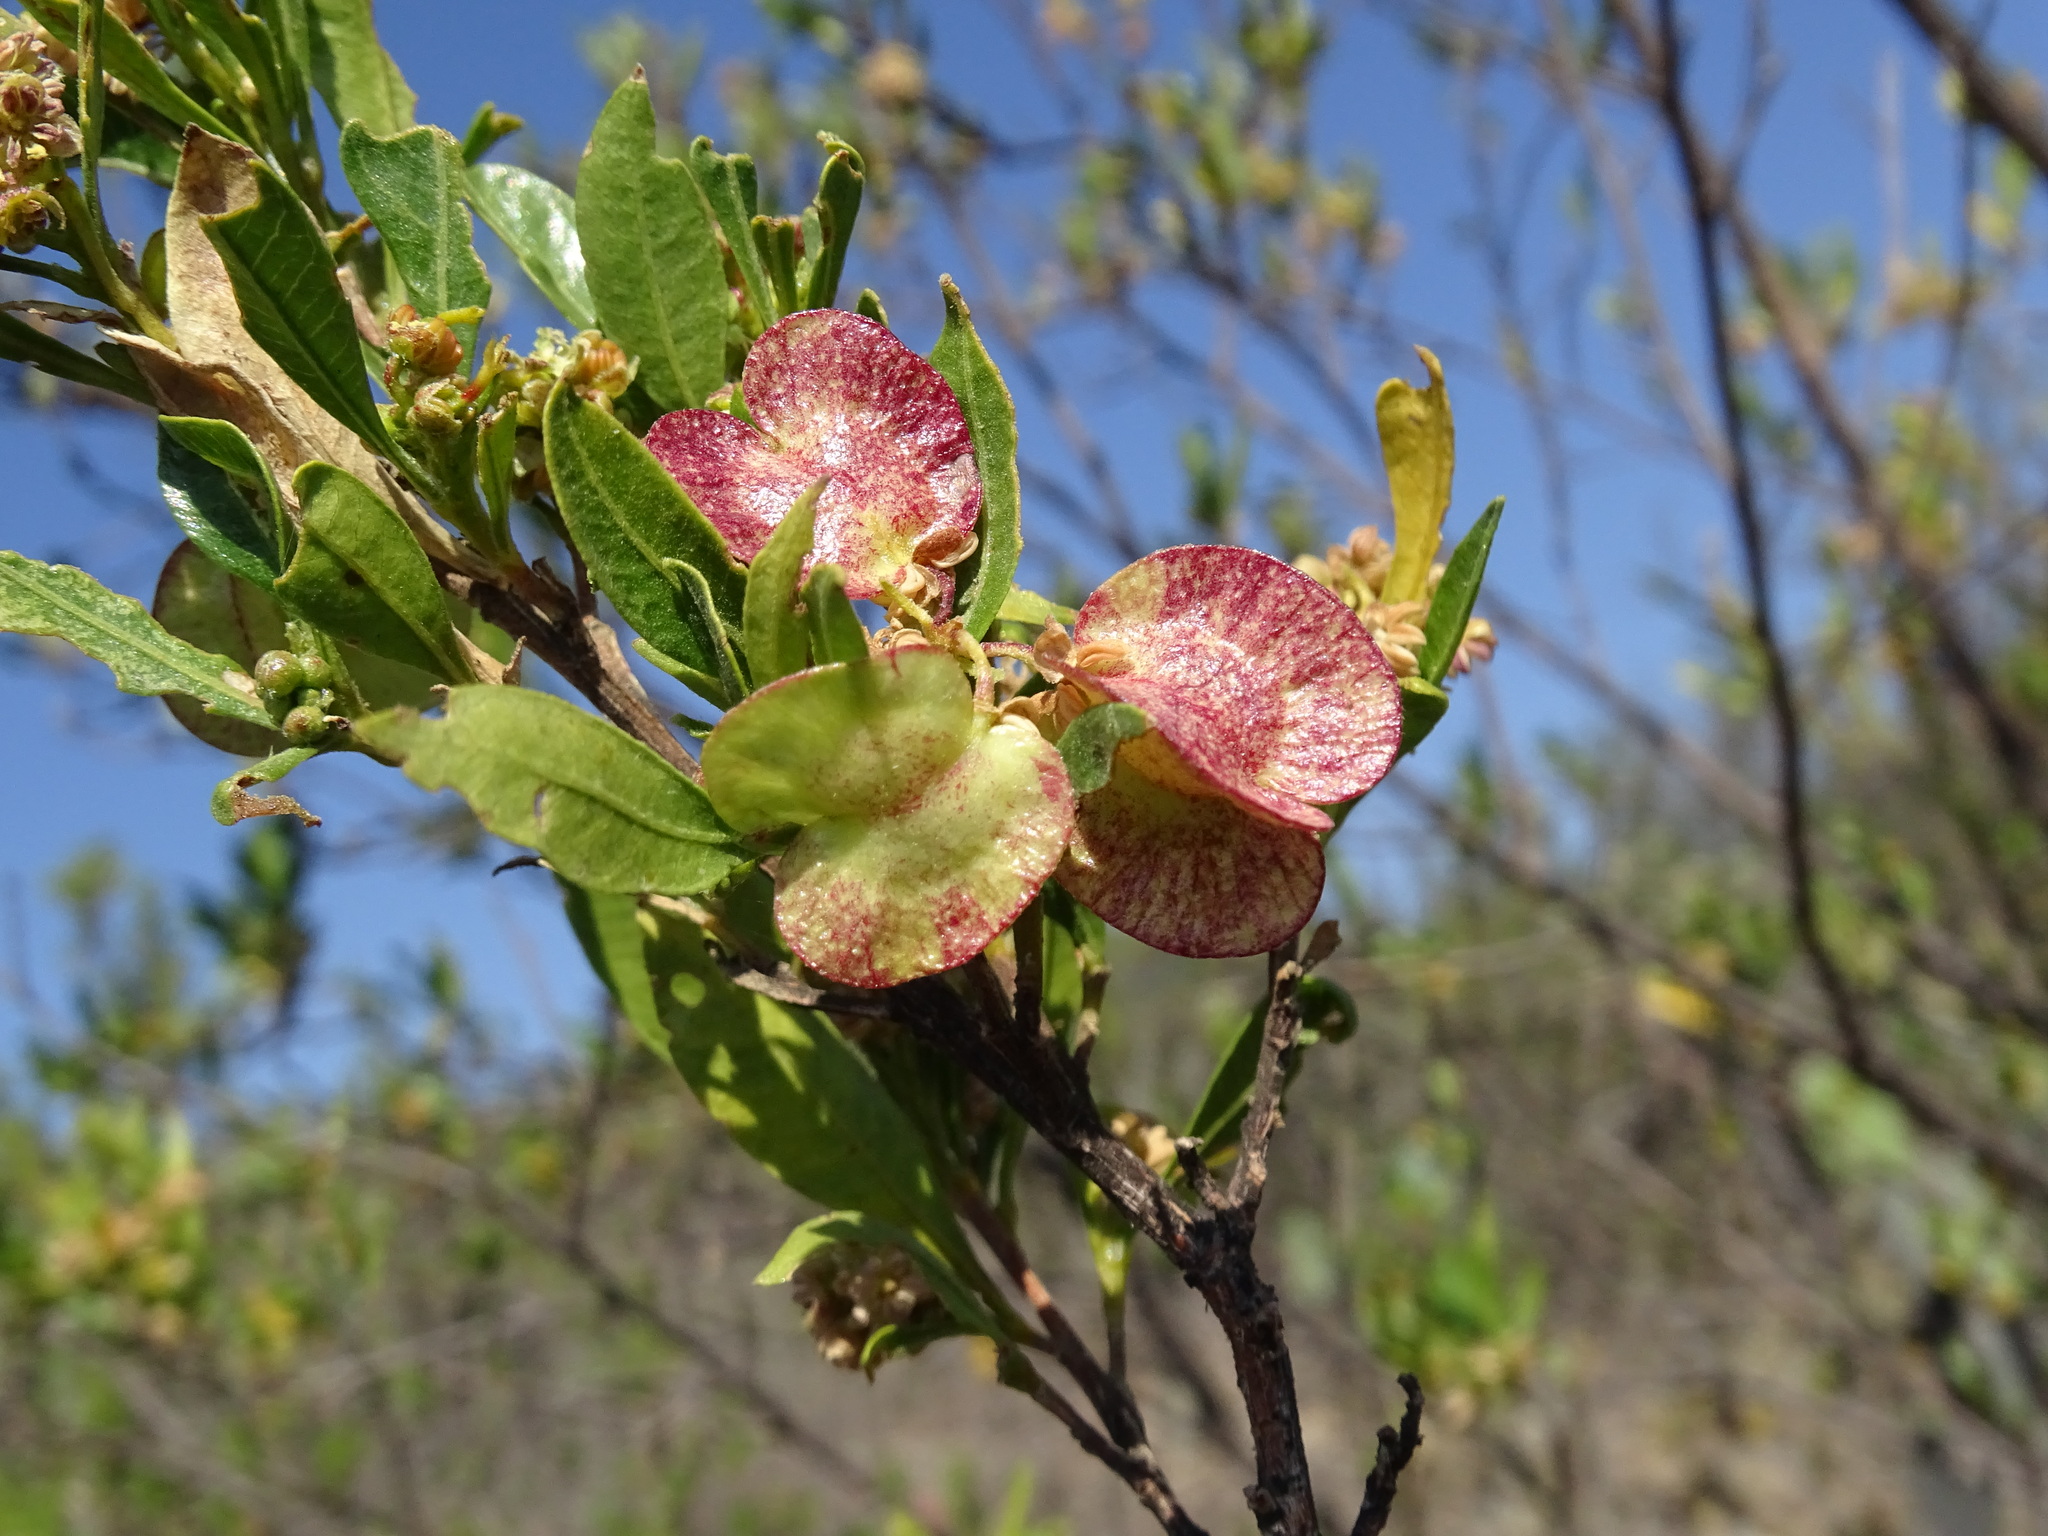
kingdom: Plantae
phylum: Tracheophyta
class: Magnoliopsida
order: Sapindales
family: Sapindaceae
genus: Dodonaea
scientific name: Dodonaea viscosa
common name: Hopbush
